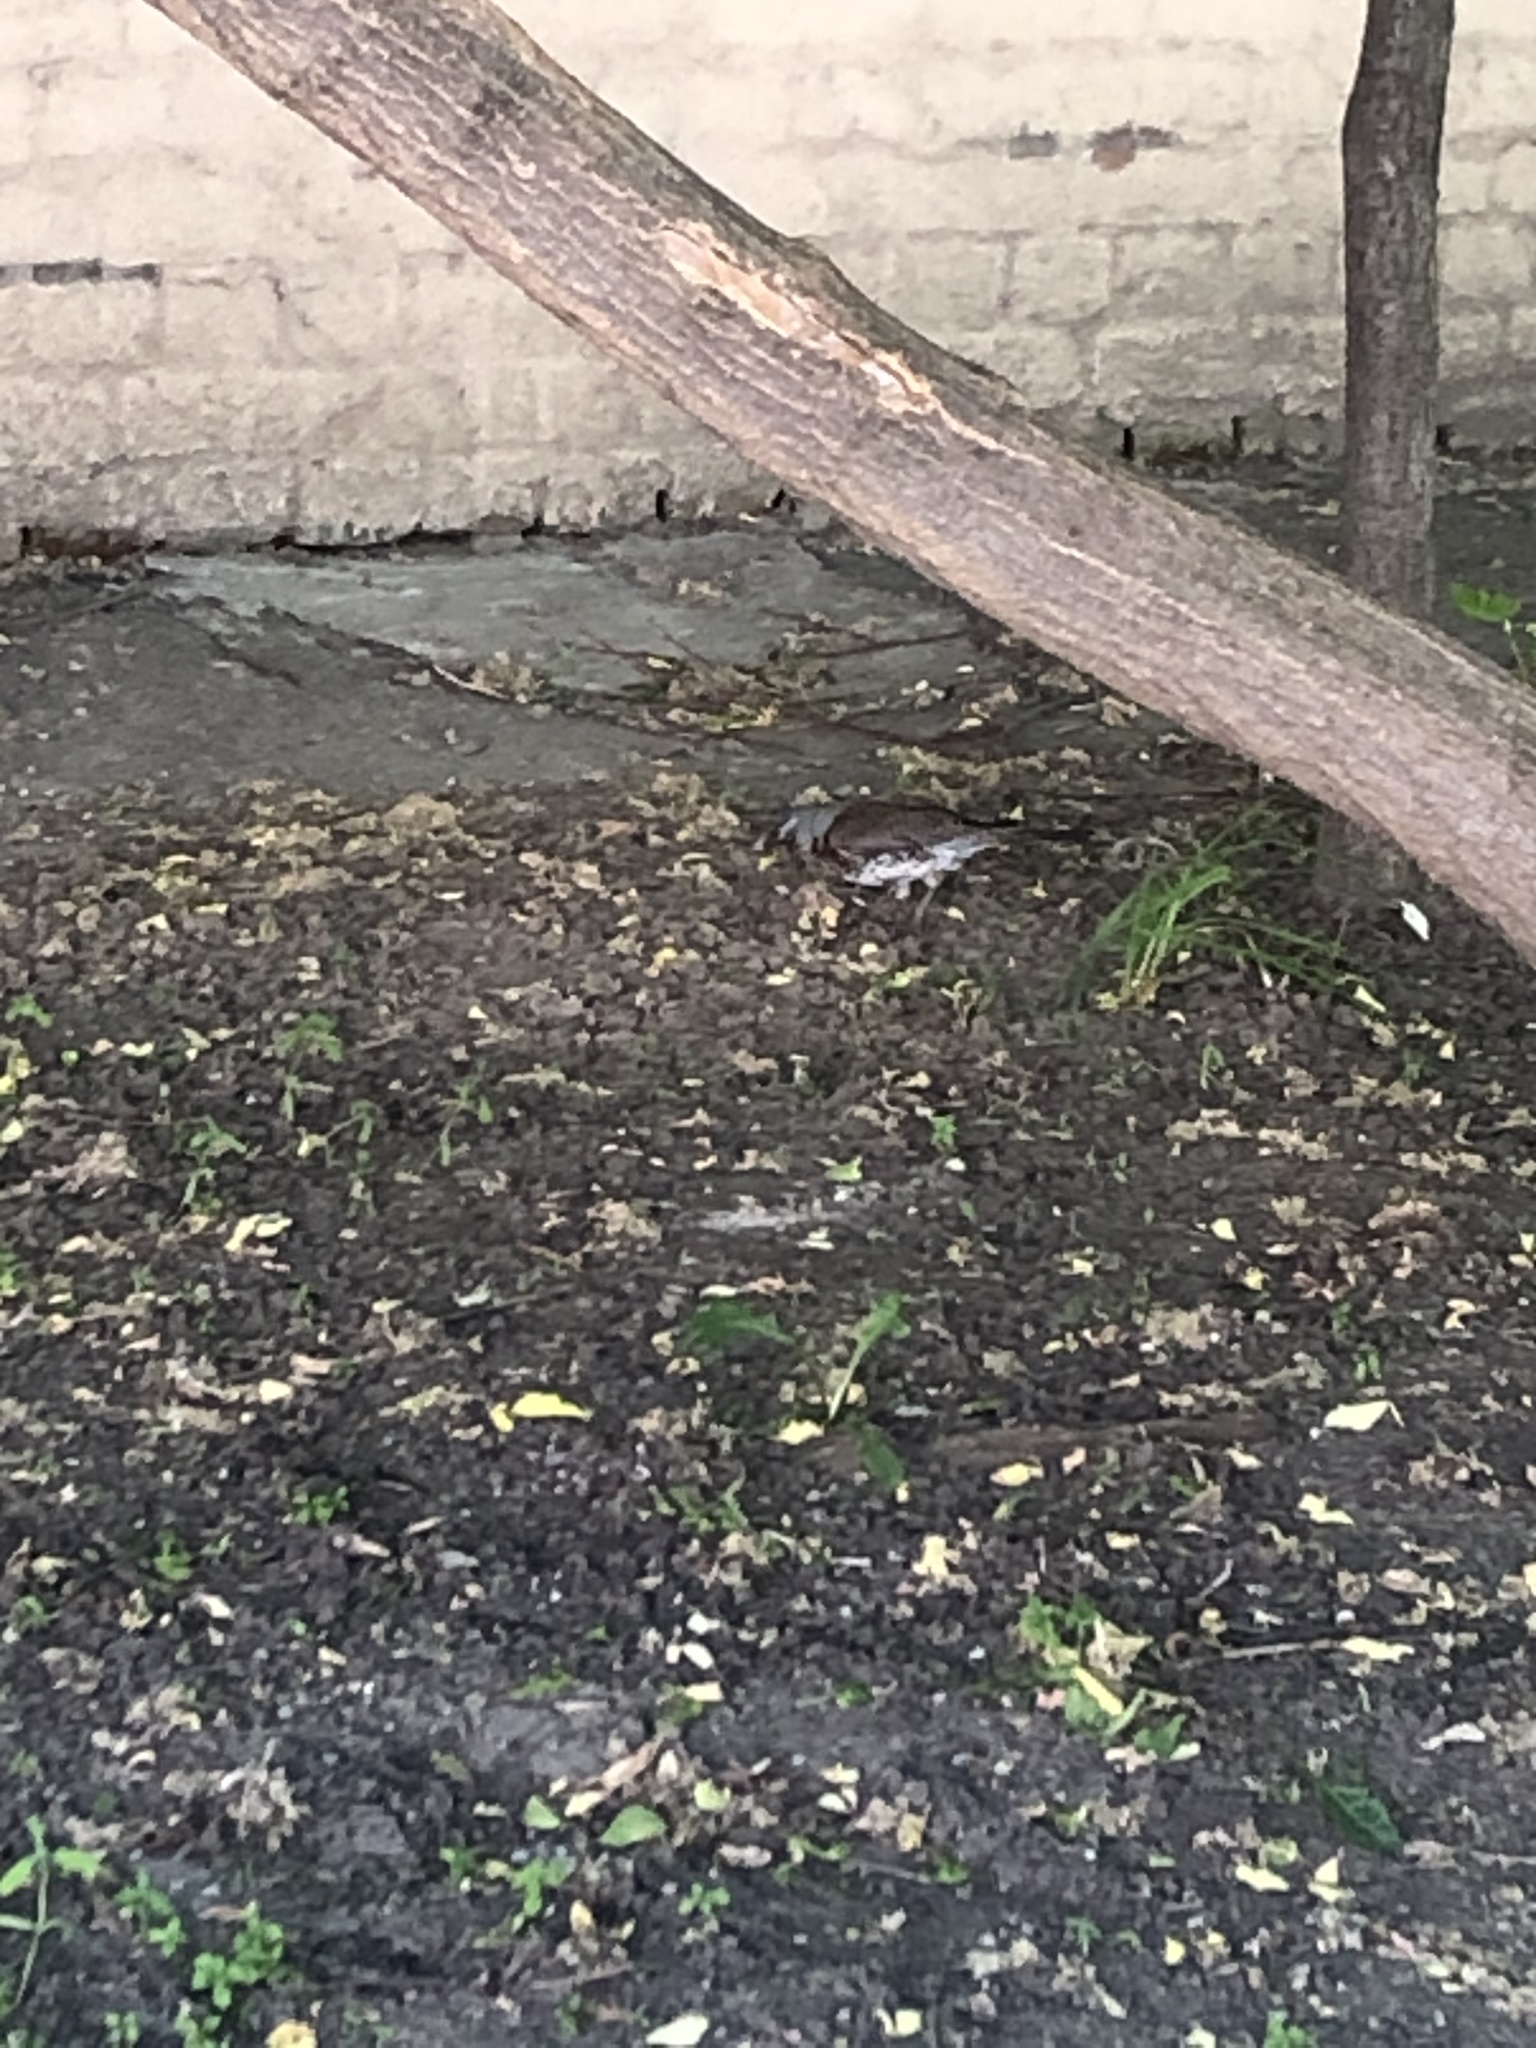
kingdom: Animalia
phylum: Chordata
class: Aves
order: Passeriformes
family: Turdidae
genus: Turdus
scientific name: Turdus pilaris
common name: Fieldfare
